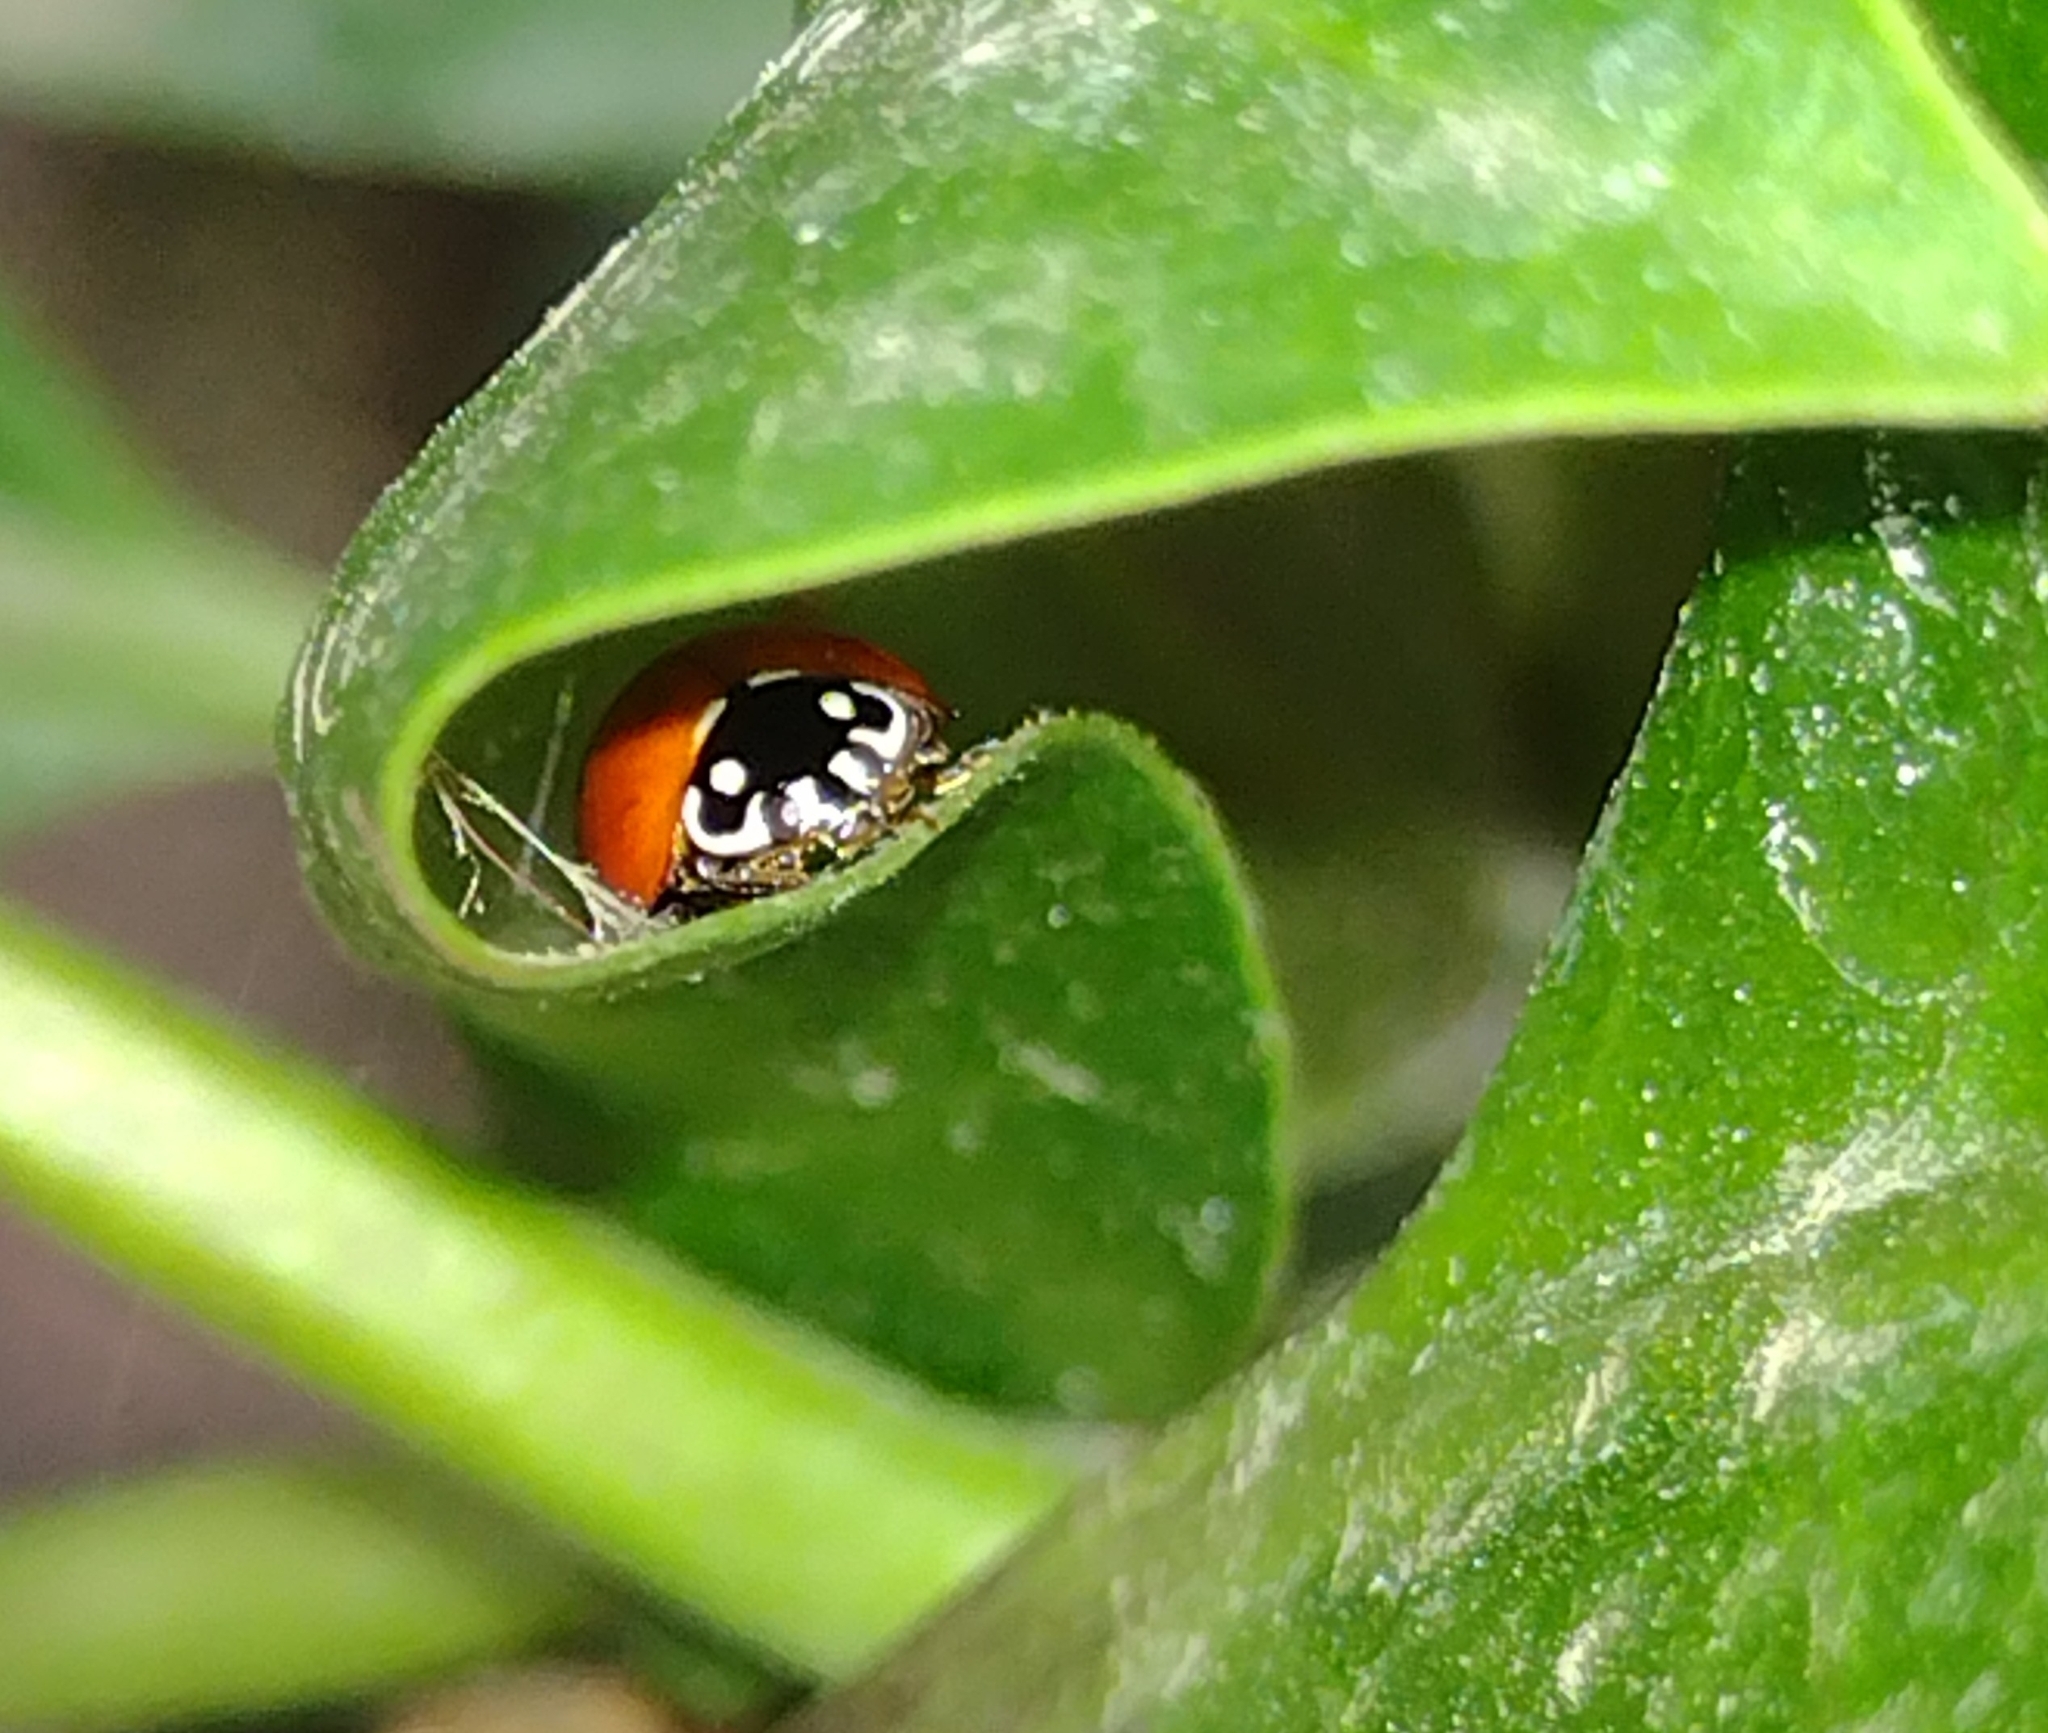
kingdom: Animalia
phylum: Arthropoda
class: Insecta
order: Coleoptera
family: Coccinellidae
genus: Cycloneda
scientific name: Cycloneda sanguinea
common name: Ladybird beetle
